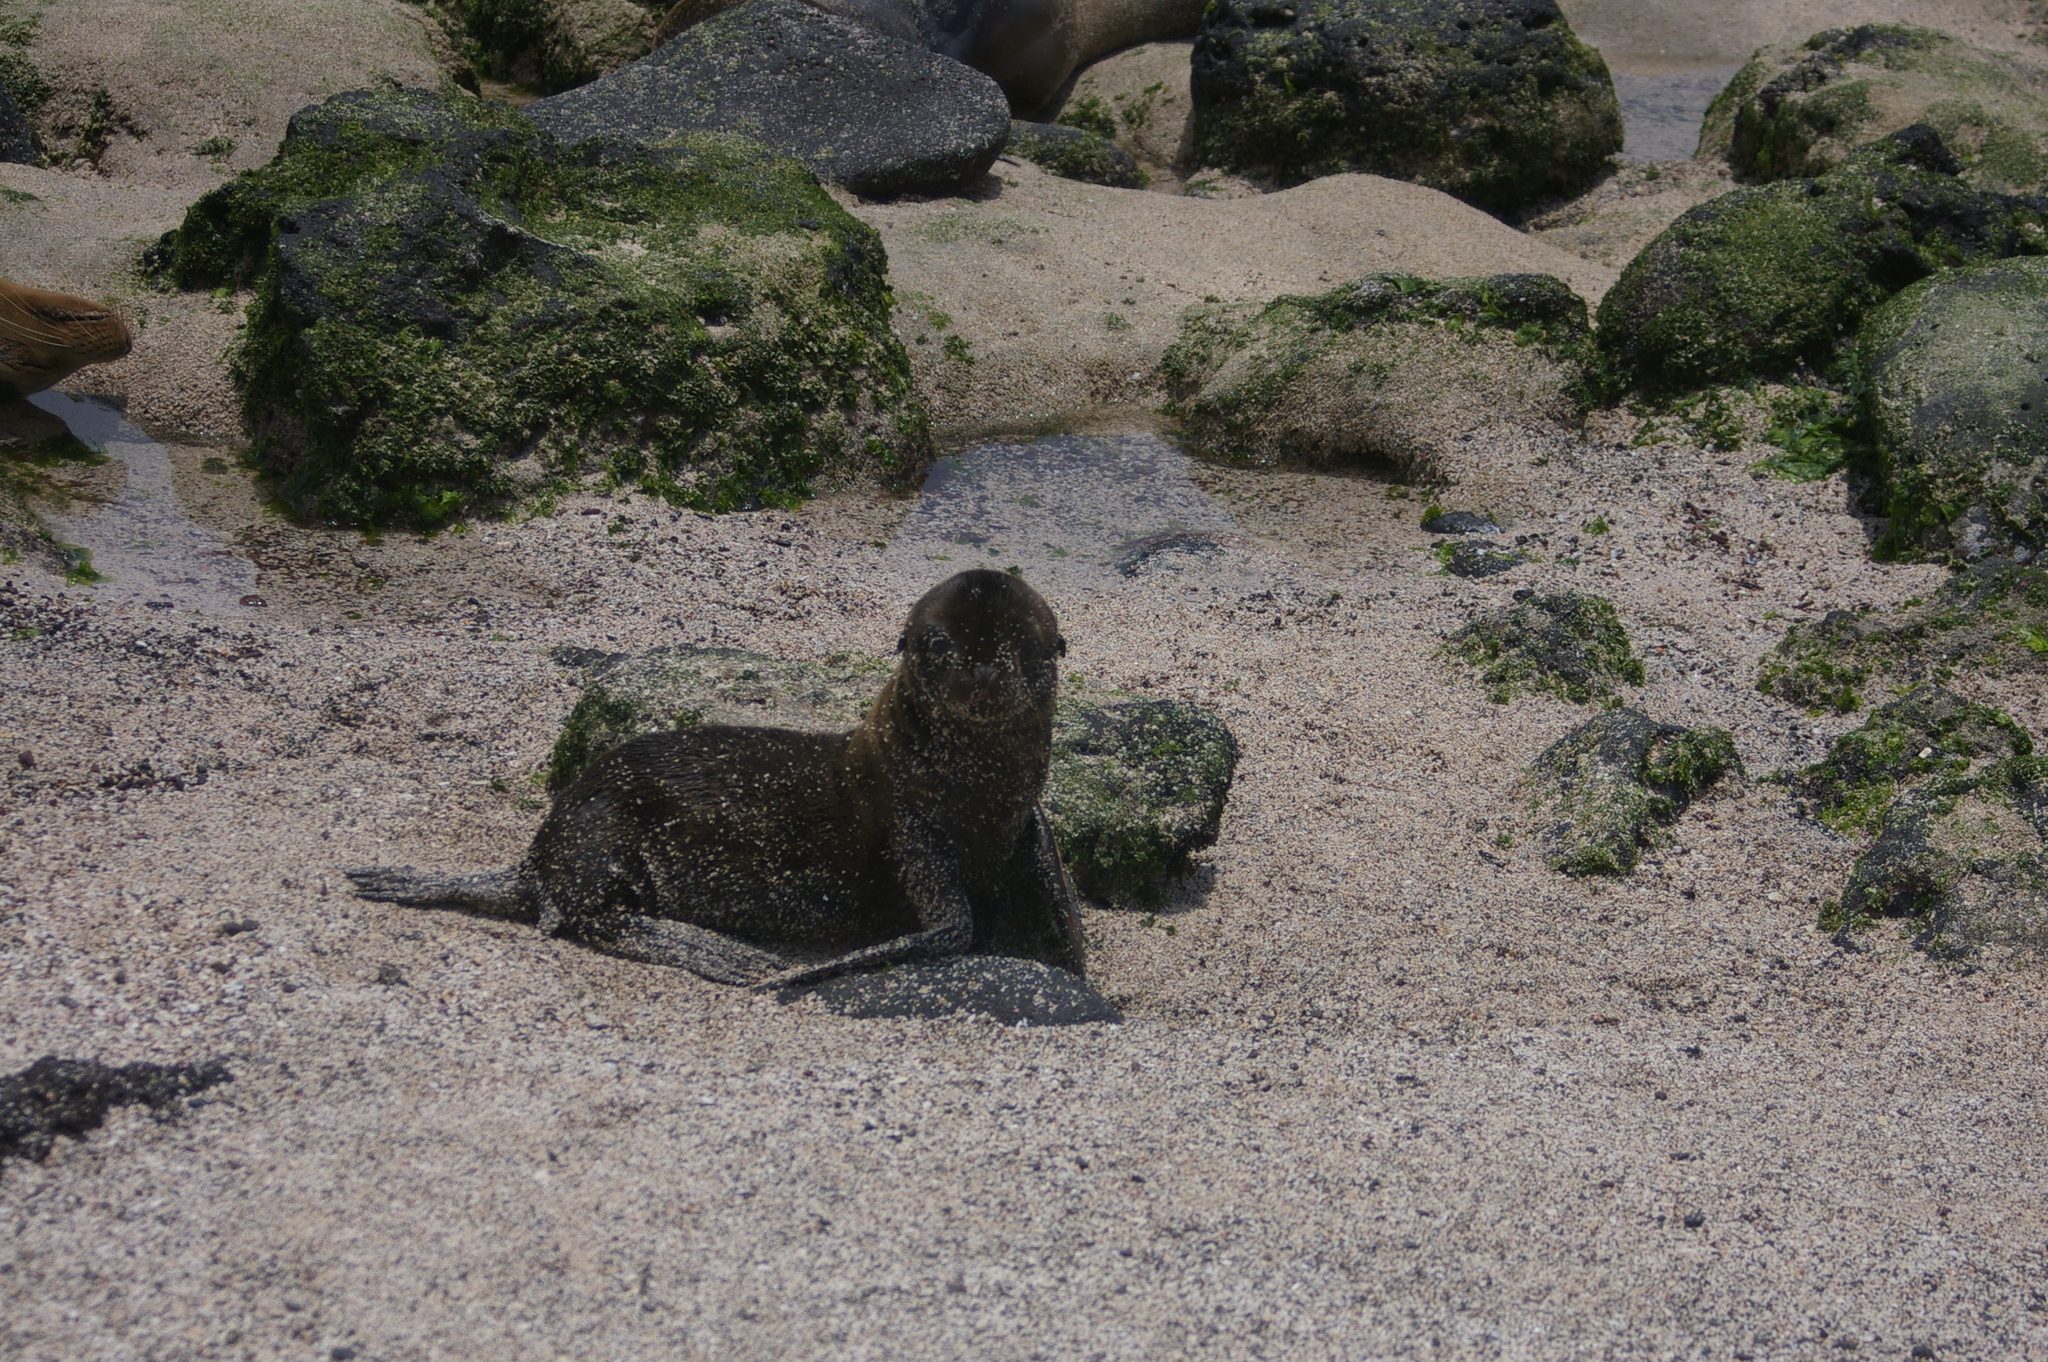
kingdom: Animalia
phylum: Chordata
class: Mammalia
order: Carnivora
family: Otariidae
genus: Zalophus
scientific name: Zalophus wollebaeki
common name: Galapagos sea lion
